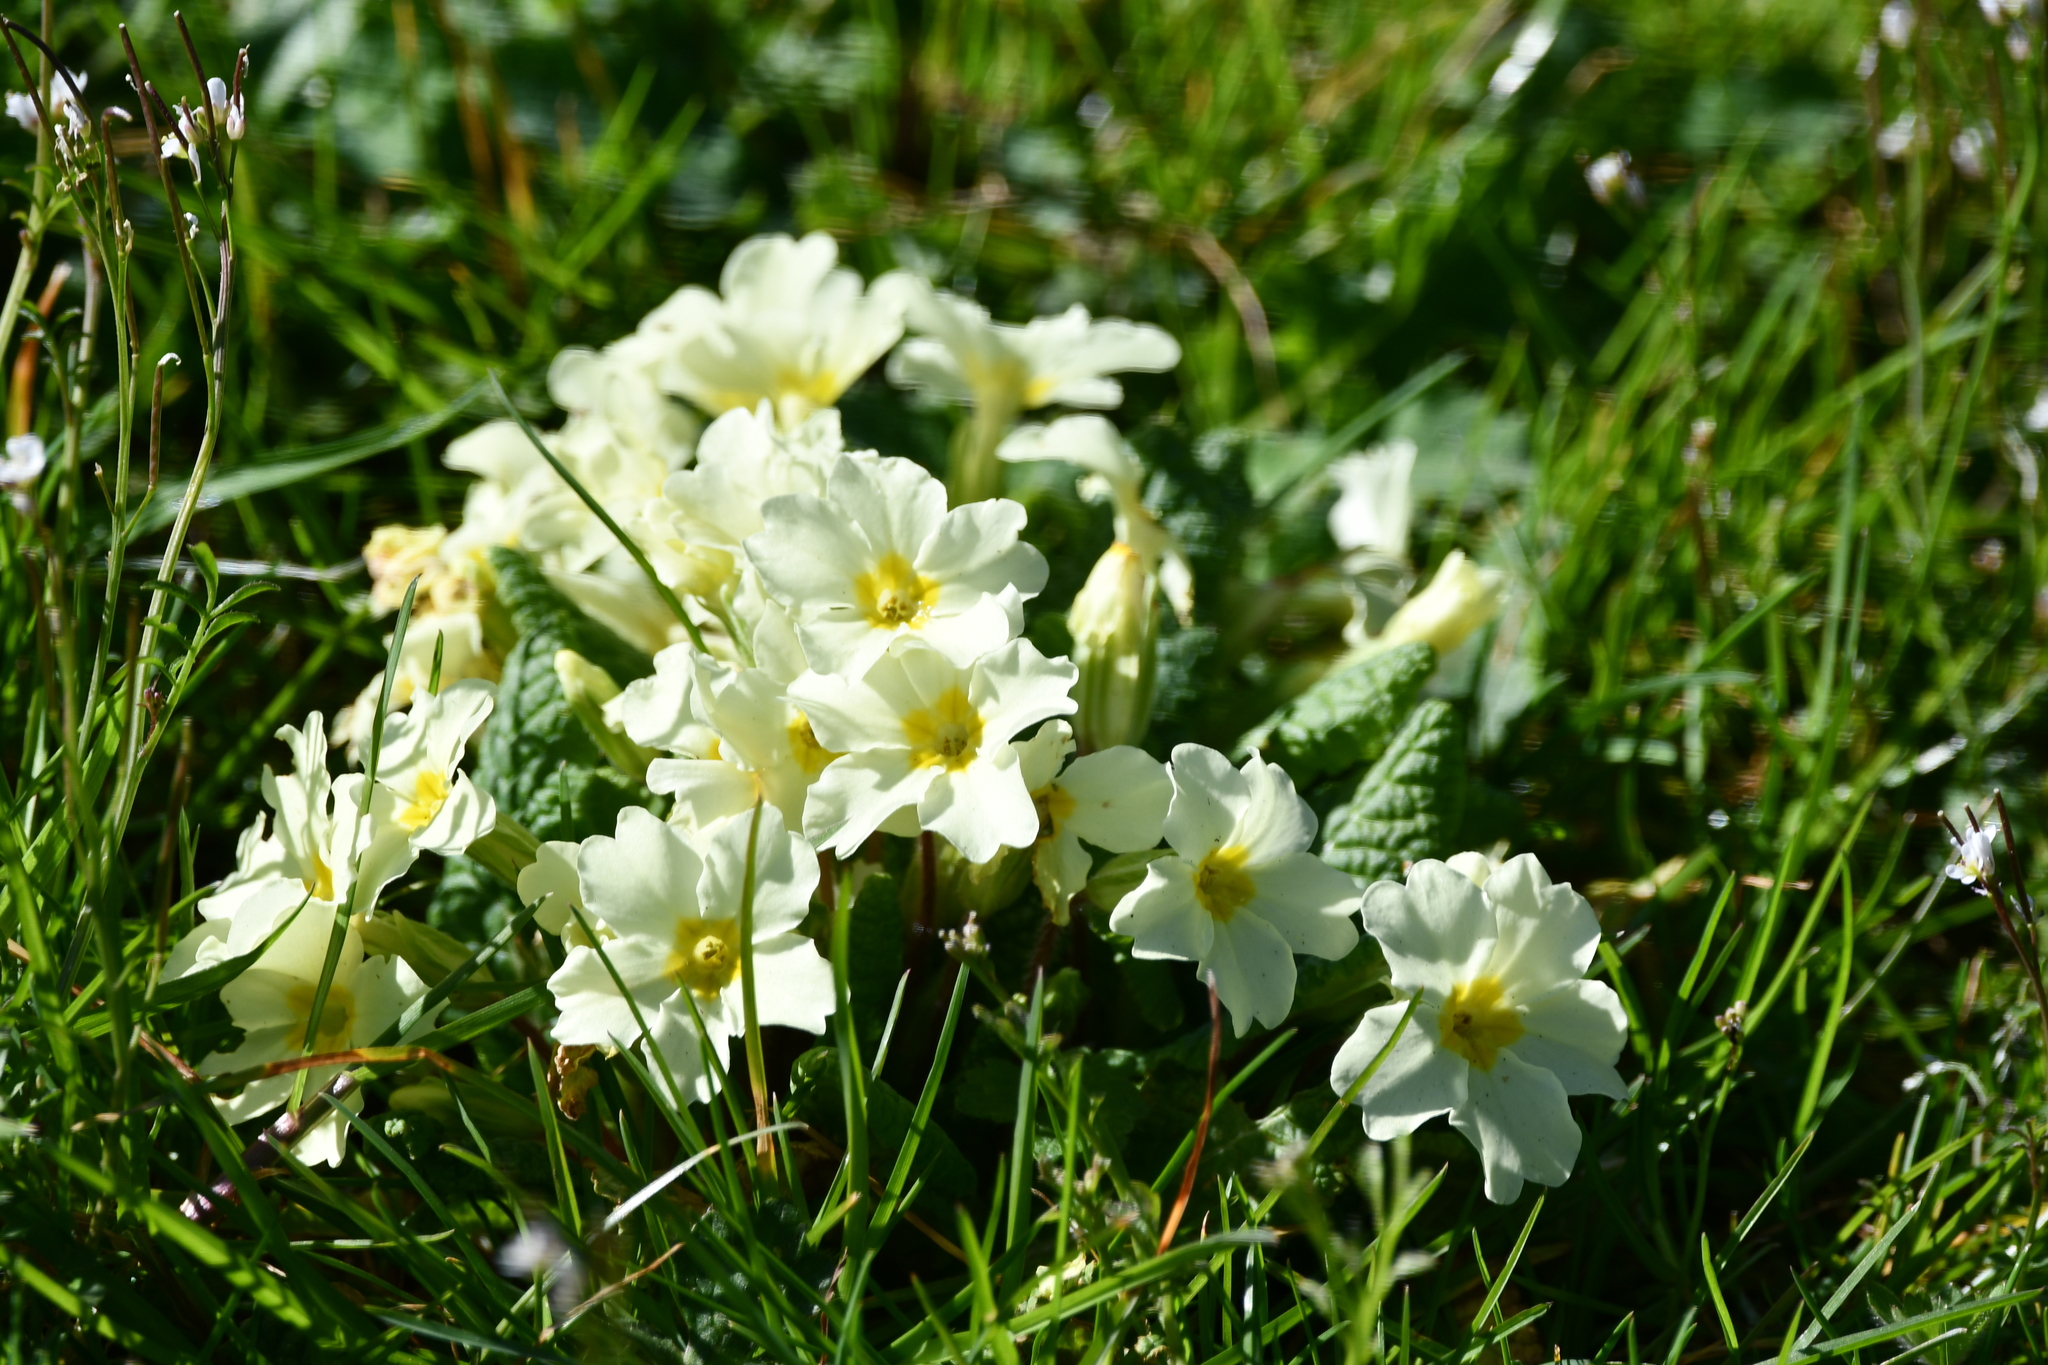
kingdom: Plantae
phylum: Tracheophyta
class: Magnoliopsida
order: Ericales
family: Primulaceae
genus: Primula
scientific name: Primula vulgaris
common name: Primrose
